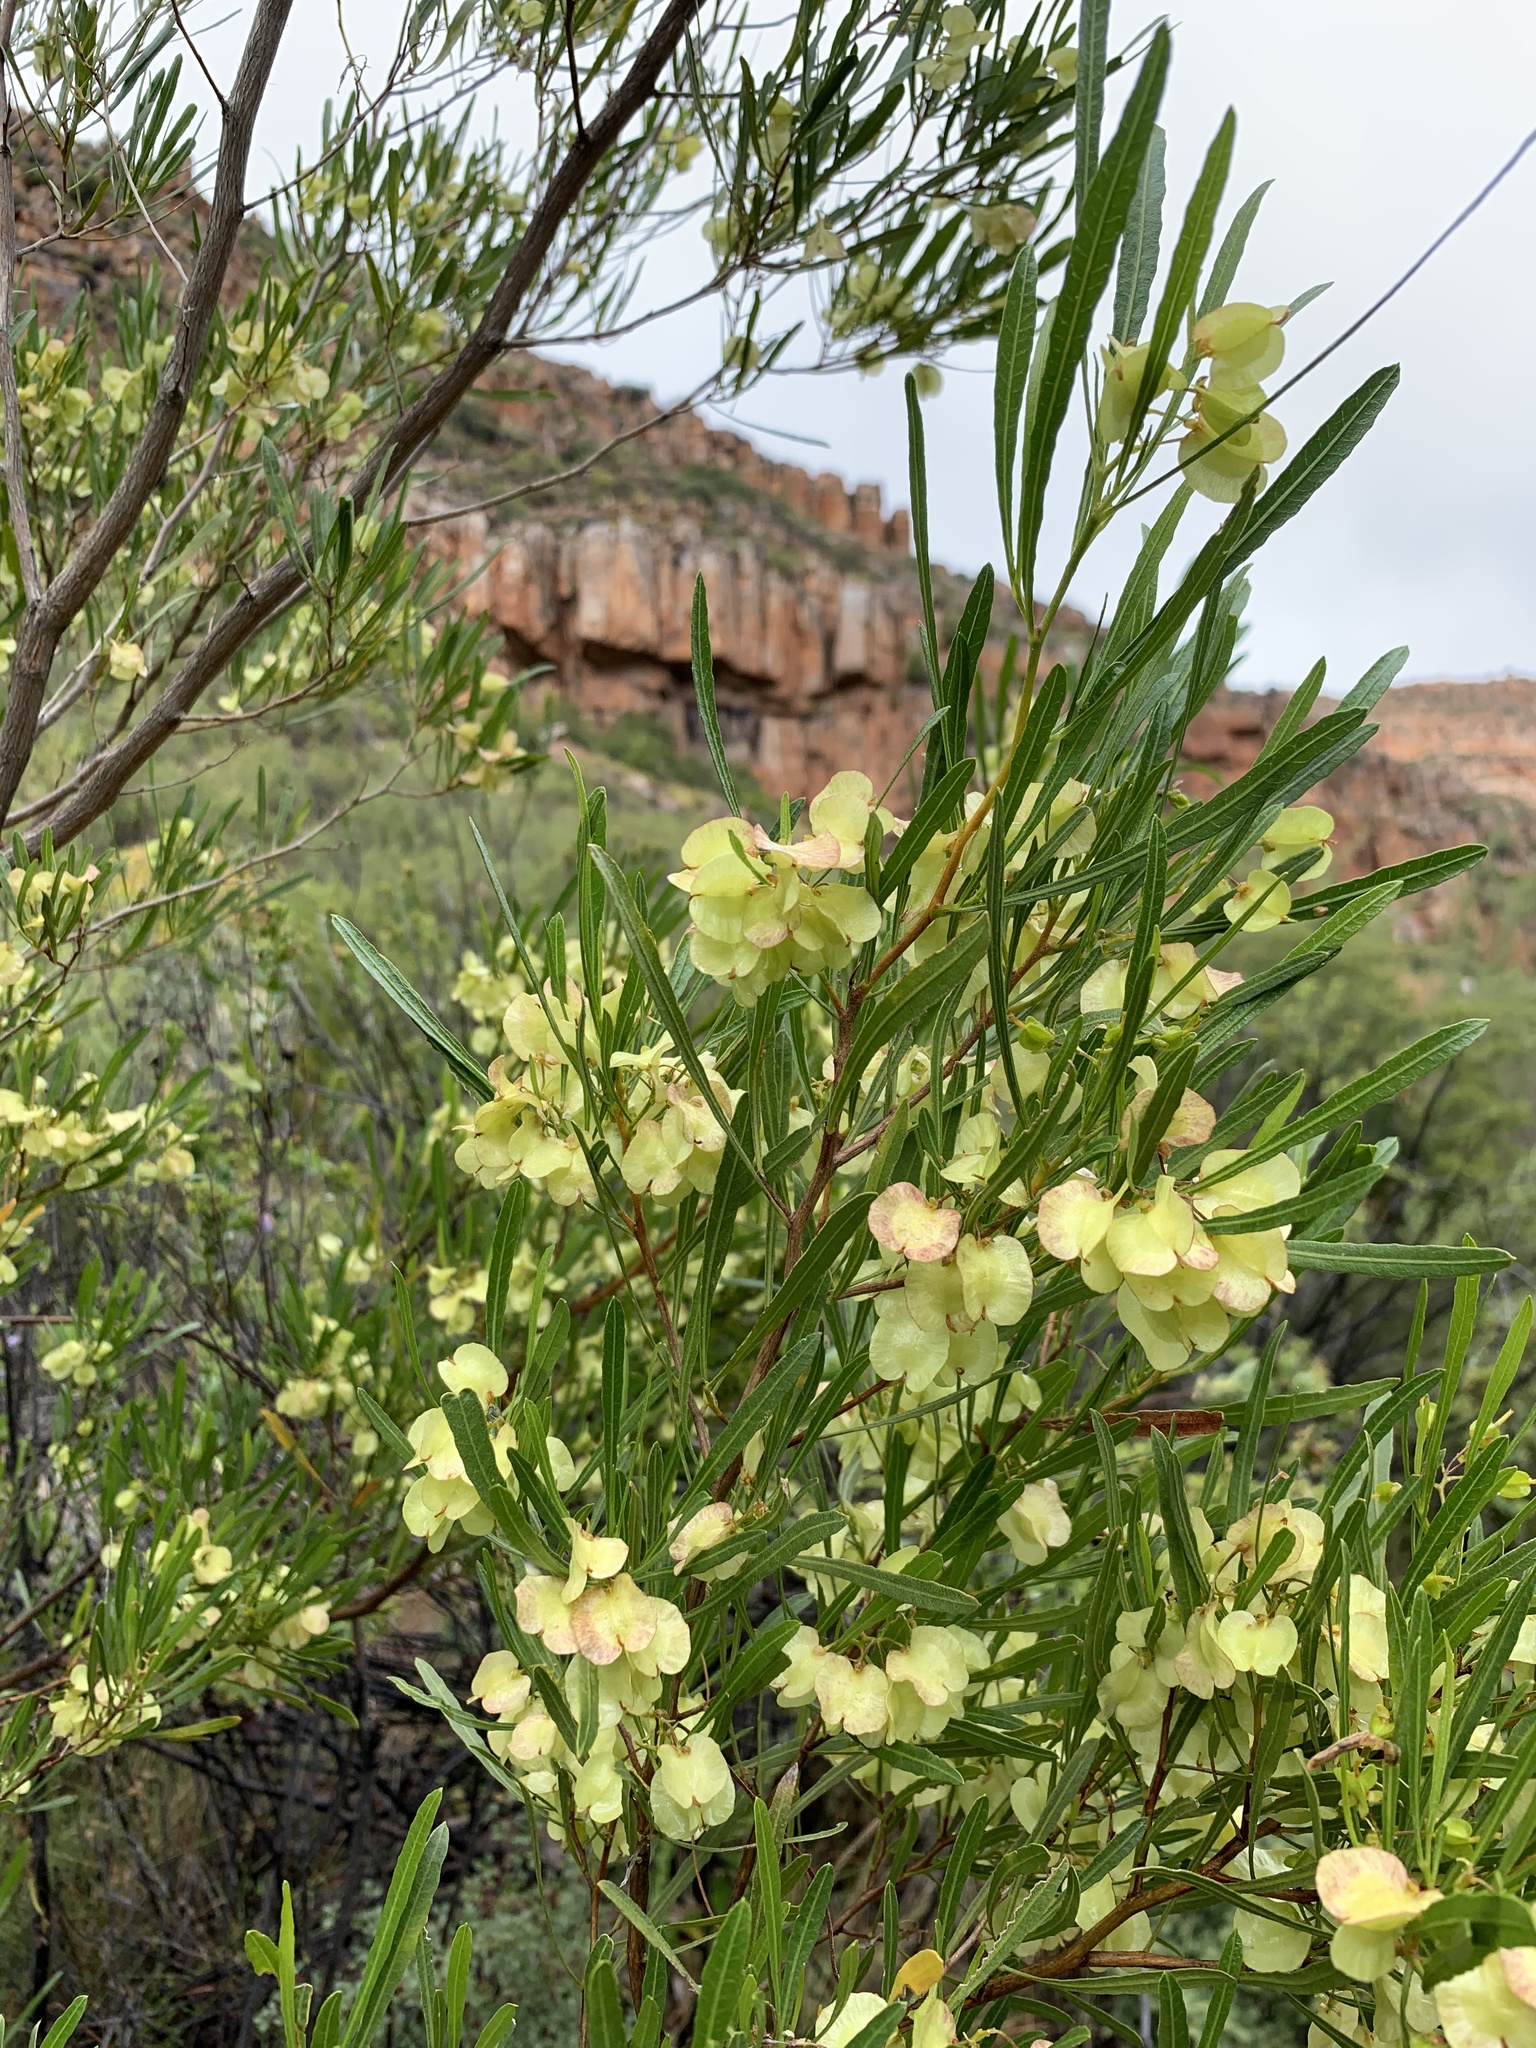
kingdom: Plantae
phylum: Tracheophyta
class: Magnoliopsida
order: Sapindales
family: Sapindaceae
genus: Dodonaea
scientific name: Dodonaea viscosa
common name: Hopbush
